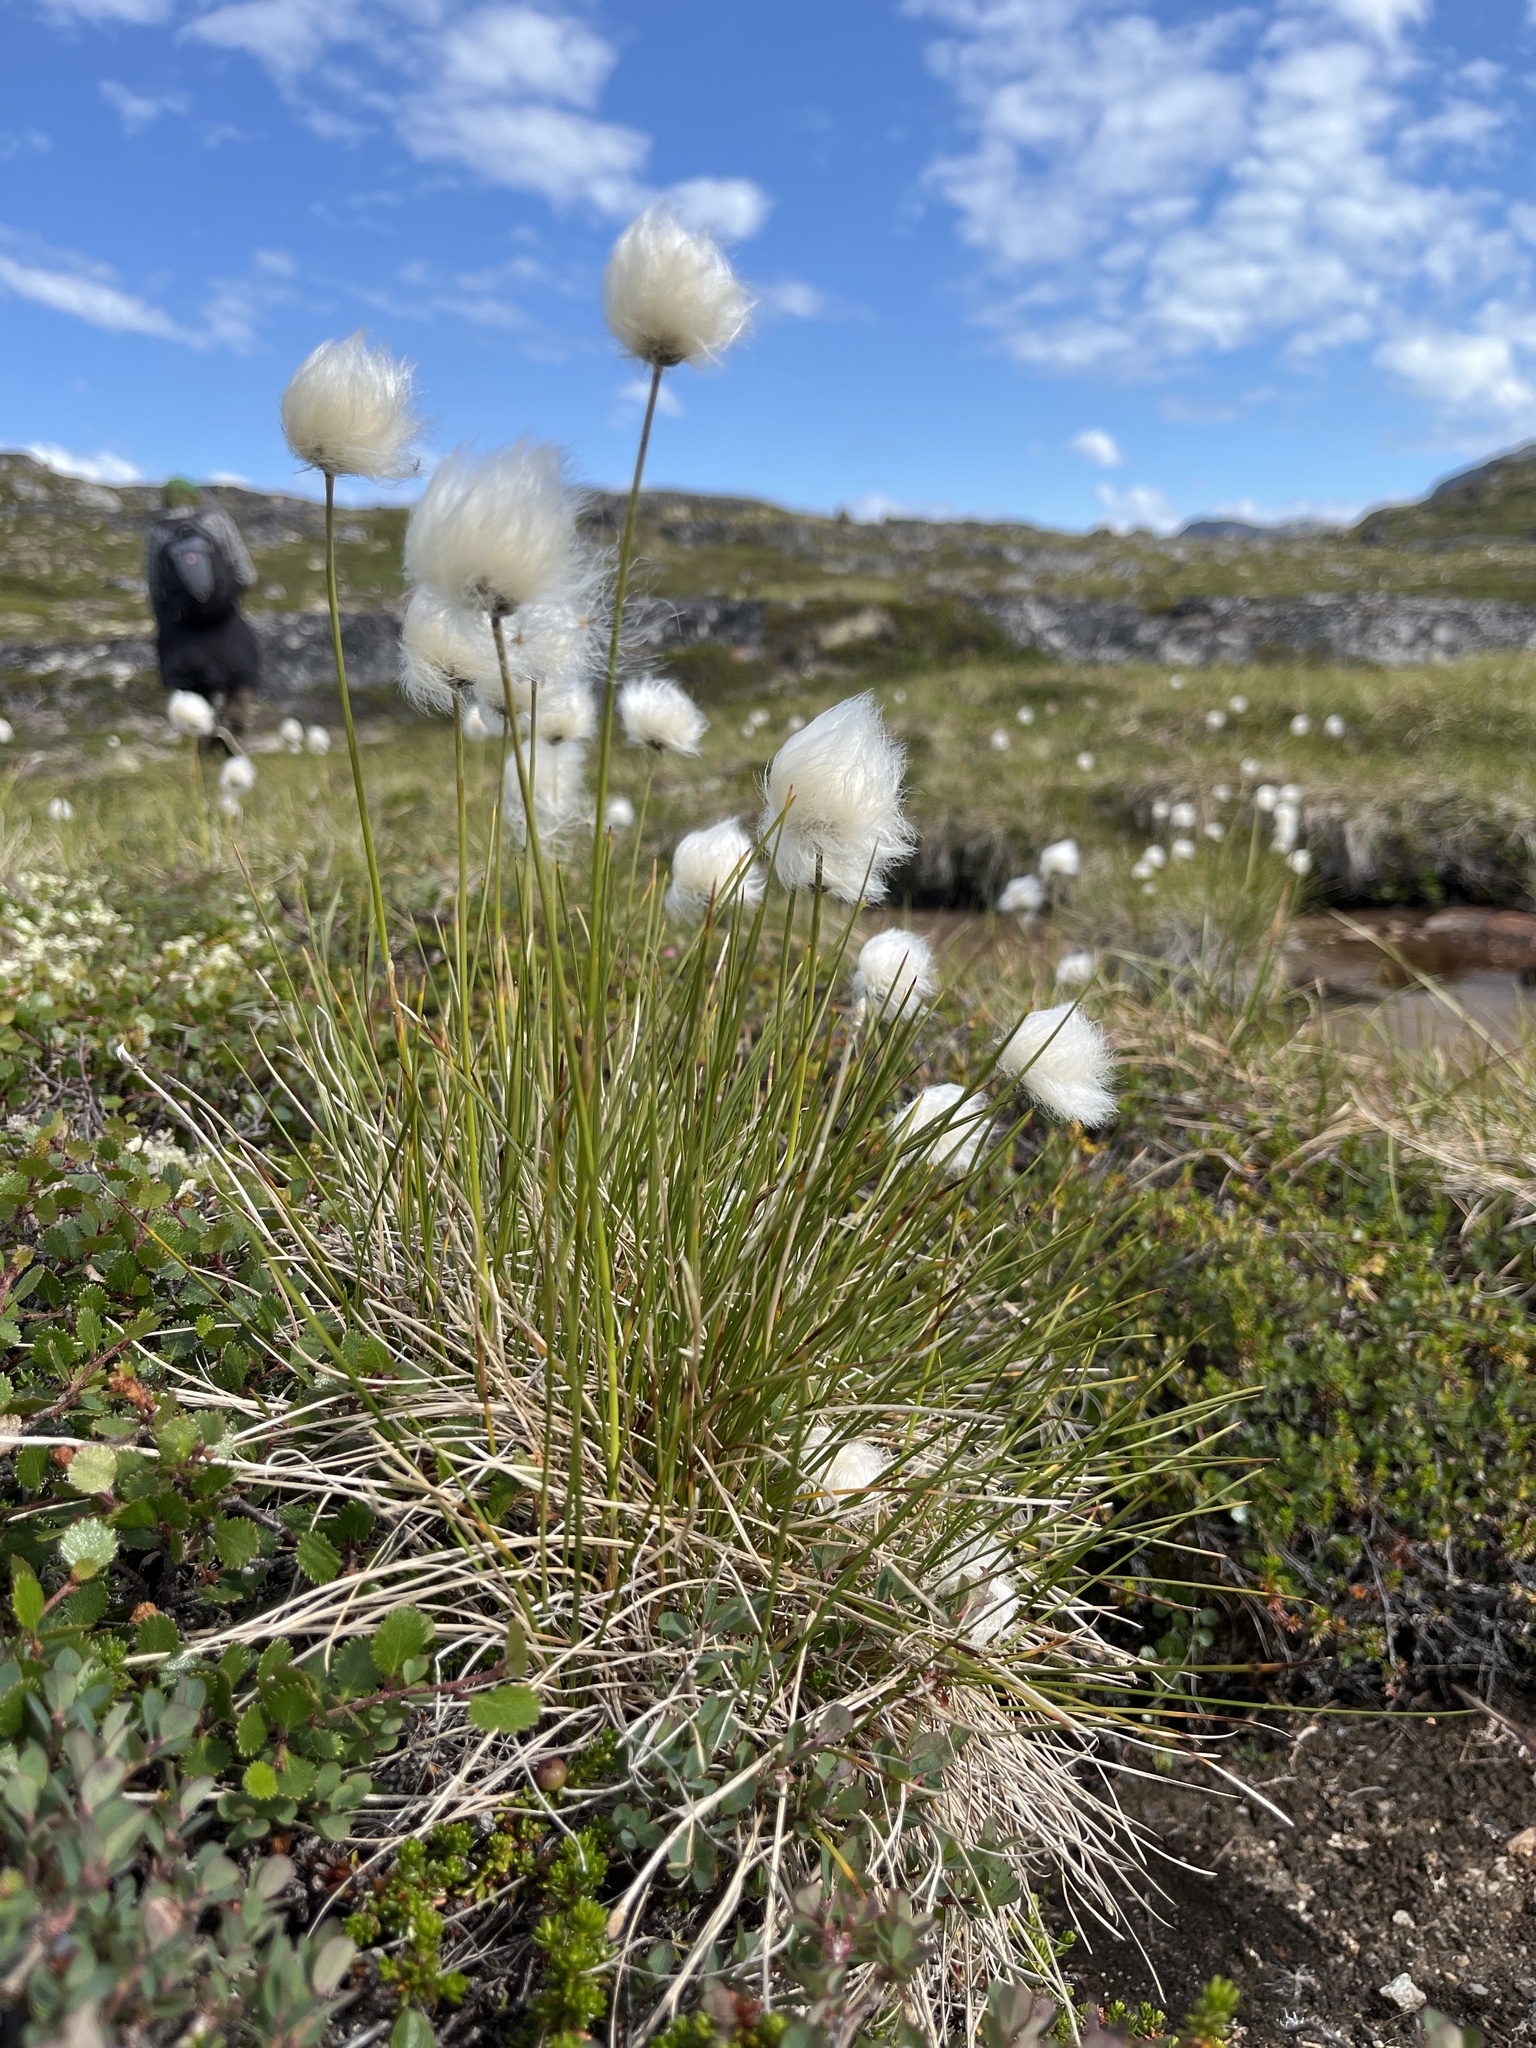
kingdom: Plantae
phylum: Tracheophyta
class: Liliopsida
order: Poales
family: Cyperaceae
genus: Eriophorum
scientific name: Eriophorum vaginatum
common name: Hare's-tail cottongrass
